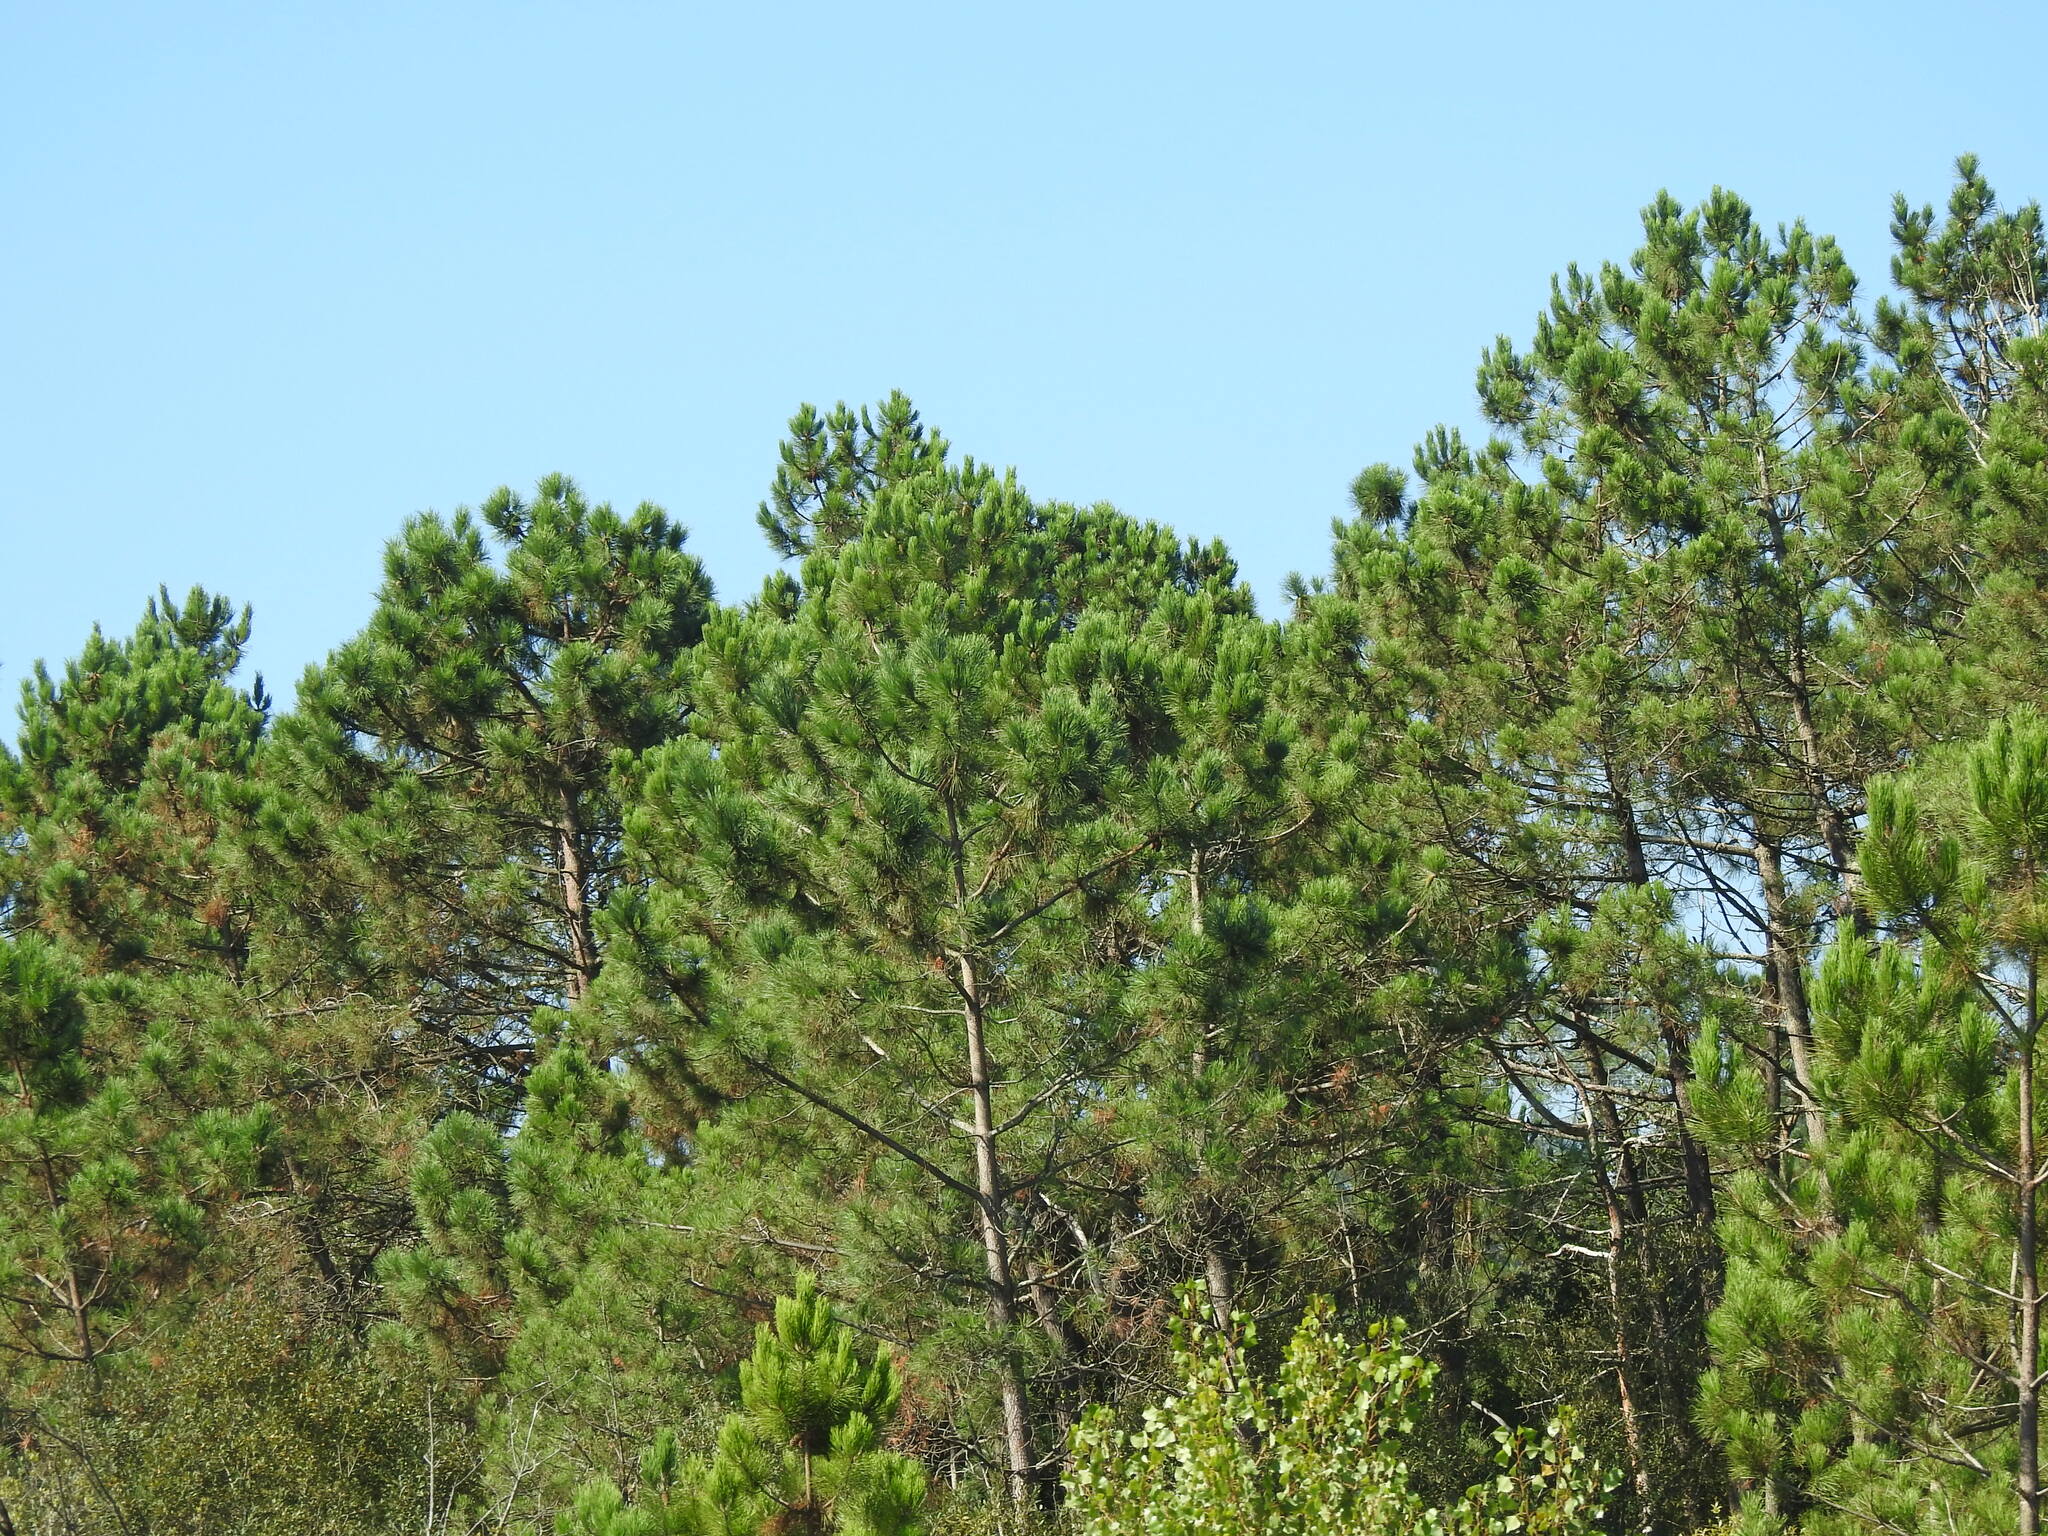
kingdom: Plantae
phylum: Tracheophyta
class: Pinopsida
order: Pinales
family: Pinaceae
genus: Pinus
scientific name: Pinus pinaster
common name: Maritime pine
